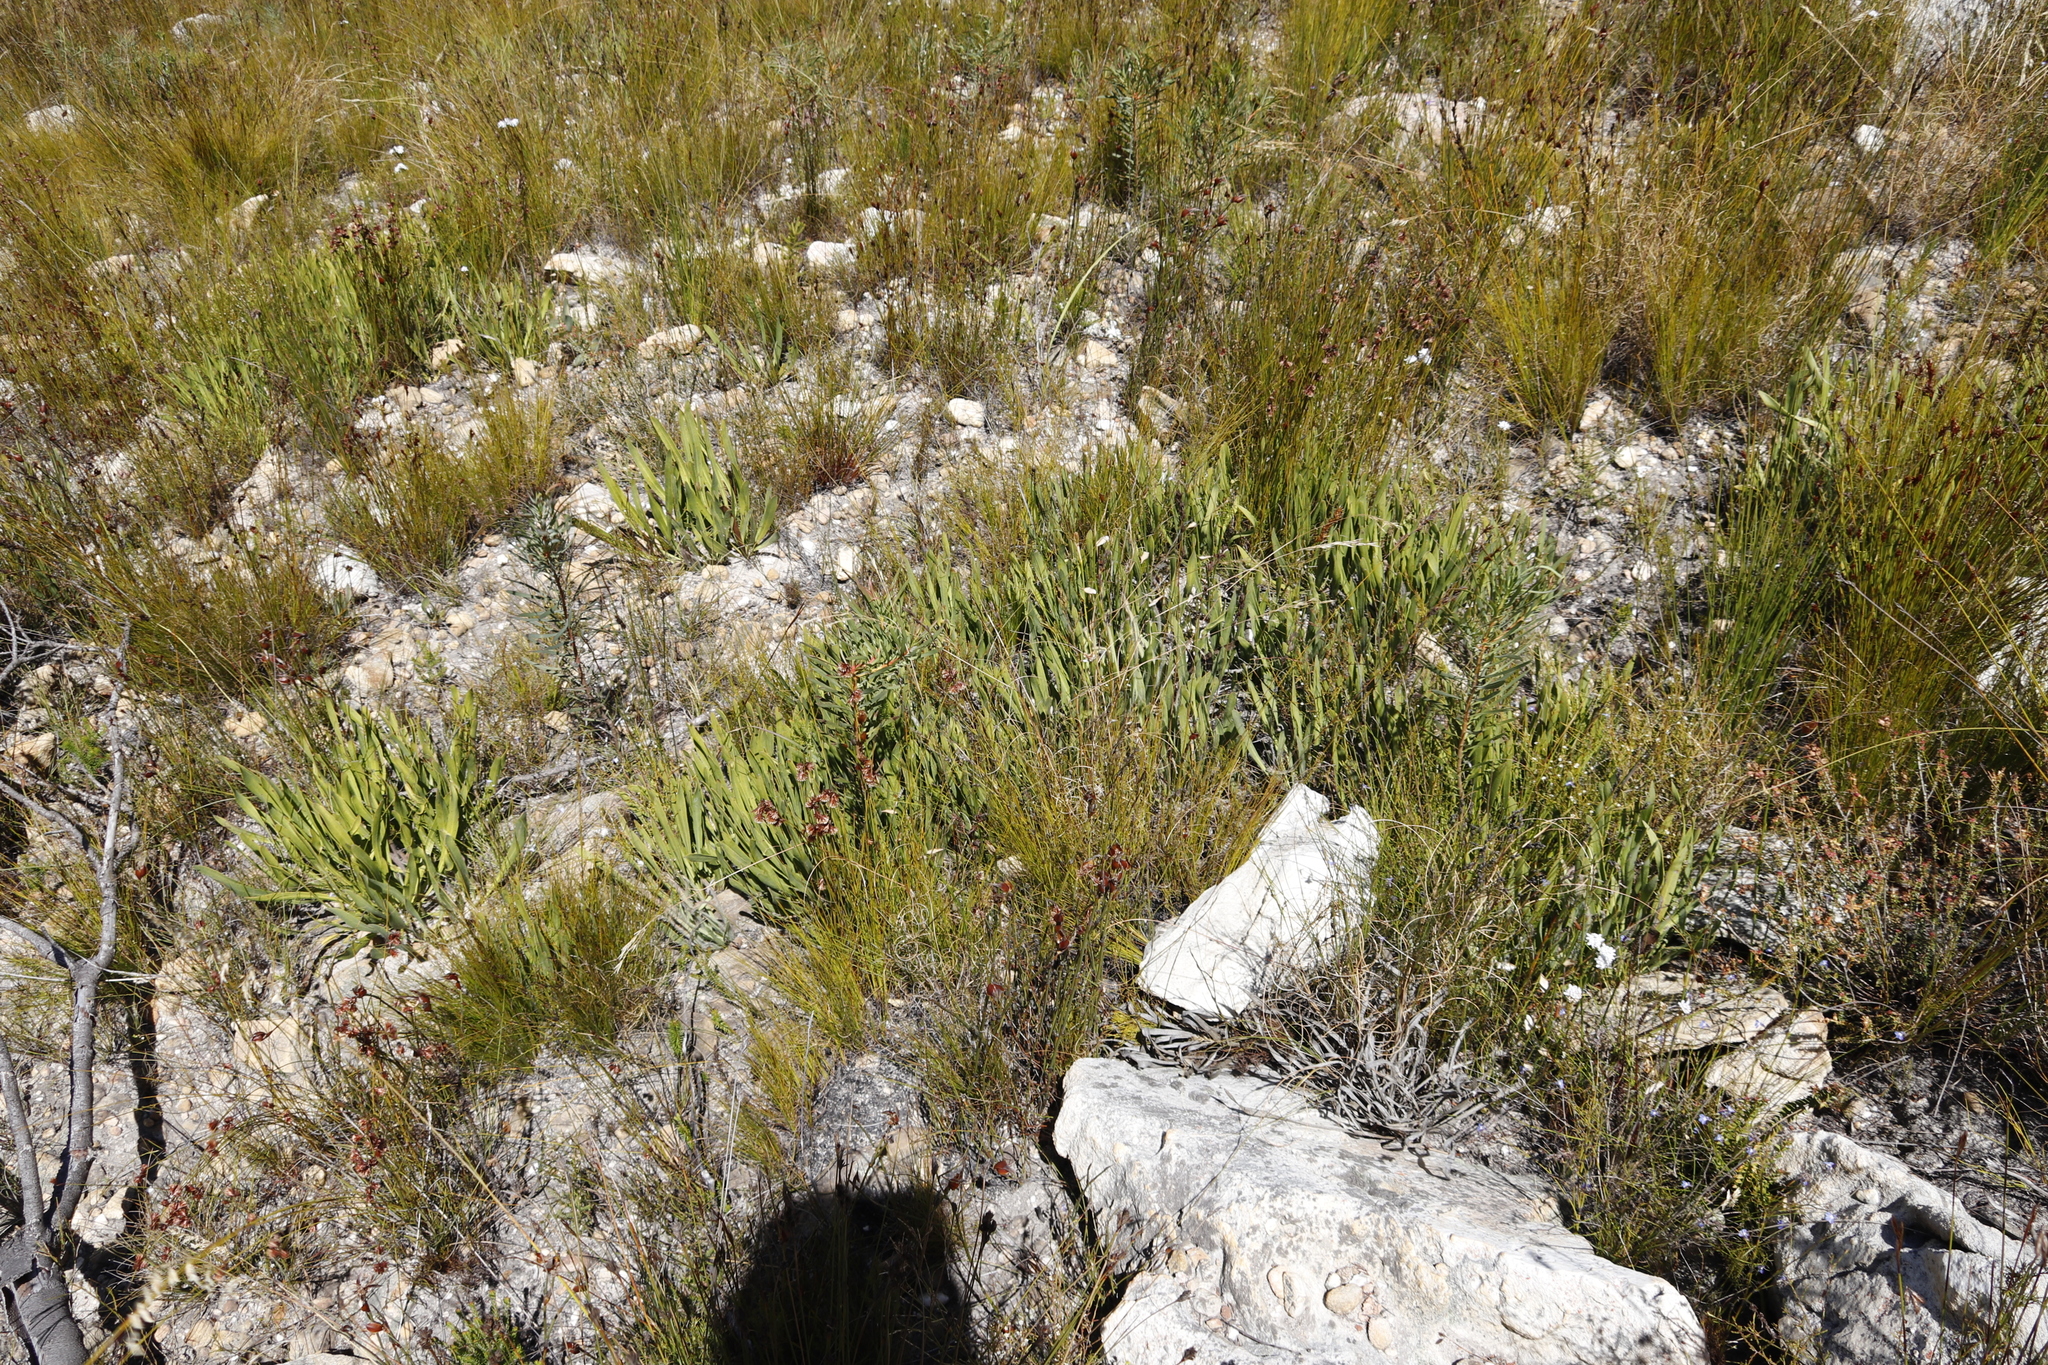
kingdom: Plantae
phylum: Tracheophyta
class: Magnoliopsida
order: Proteales
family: Proteaceae
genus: Protea
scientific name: Protea scabra
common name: Sandpaper-leaf sugarbush
